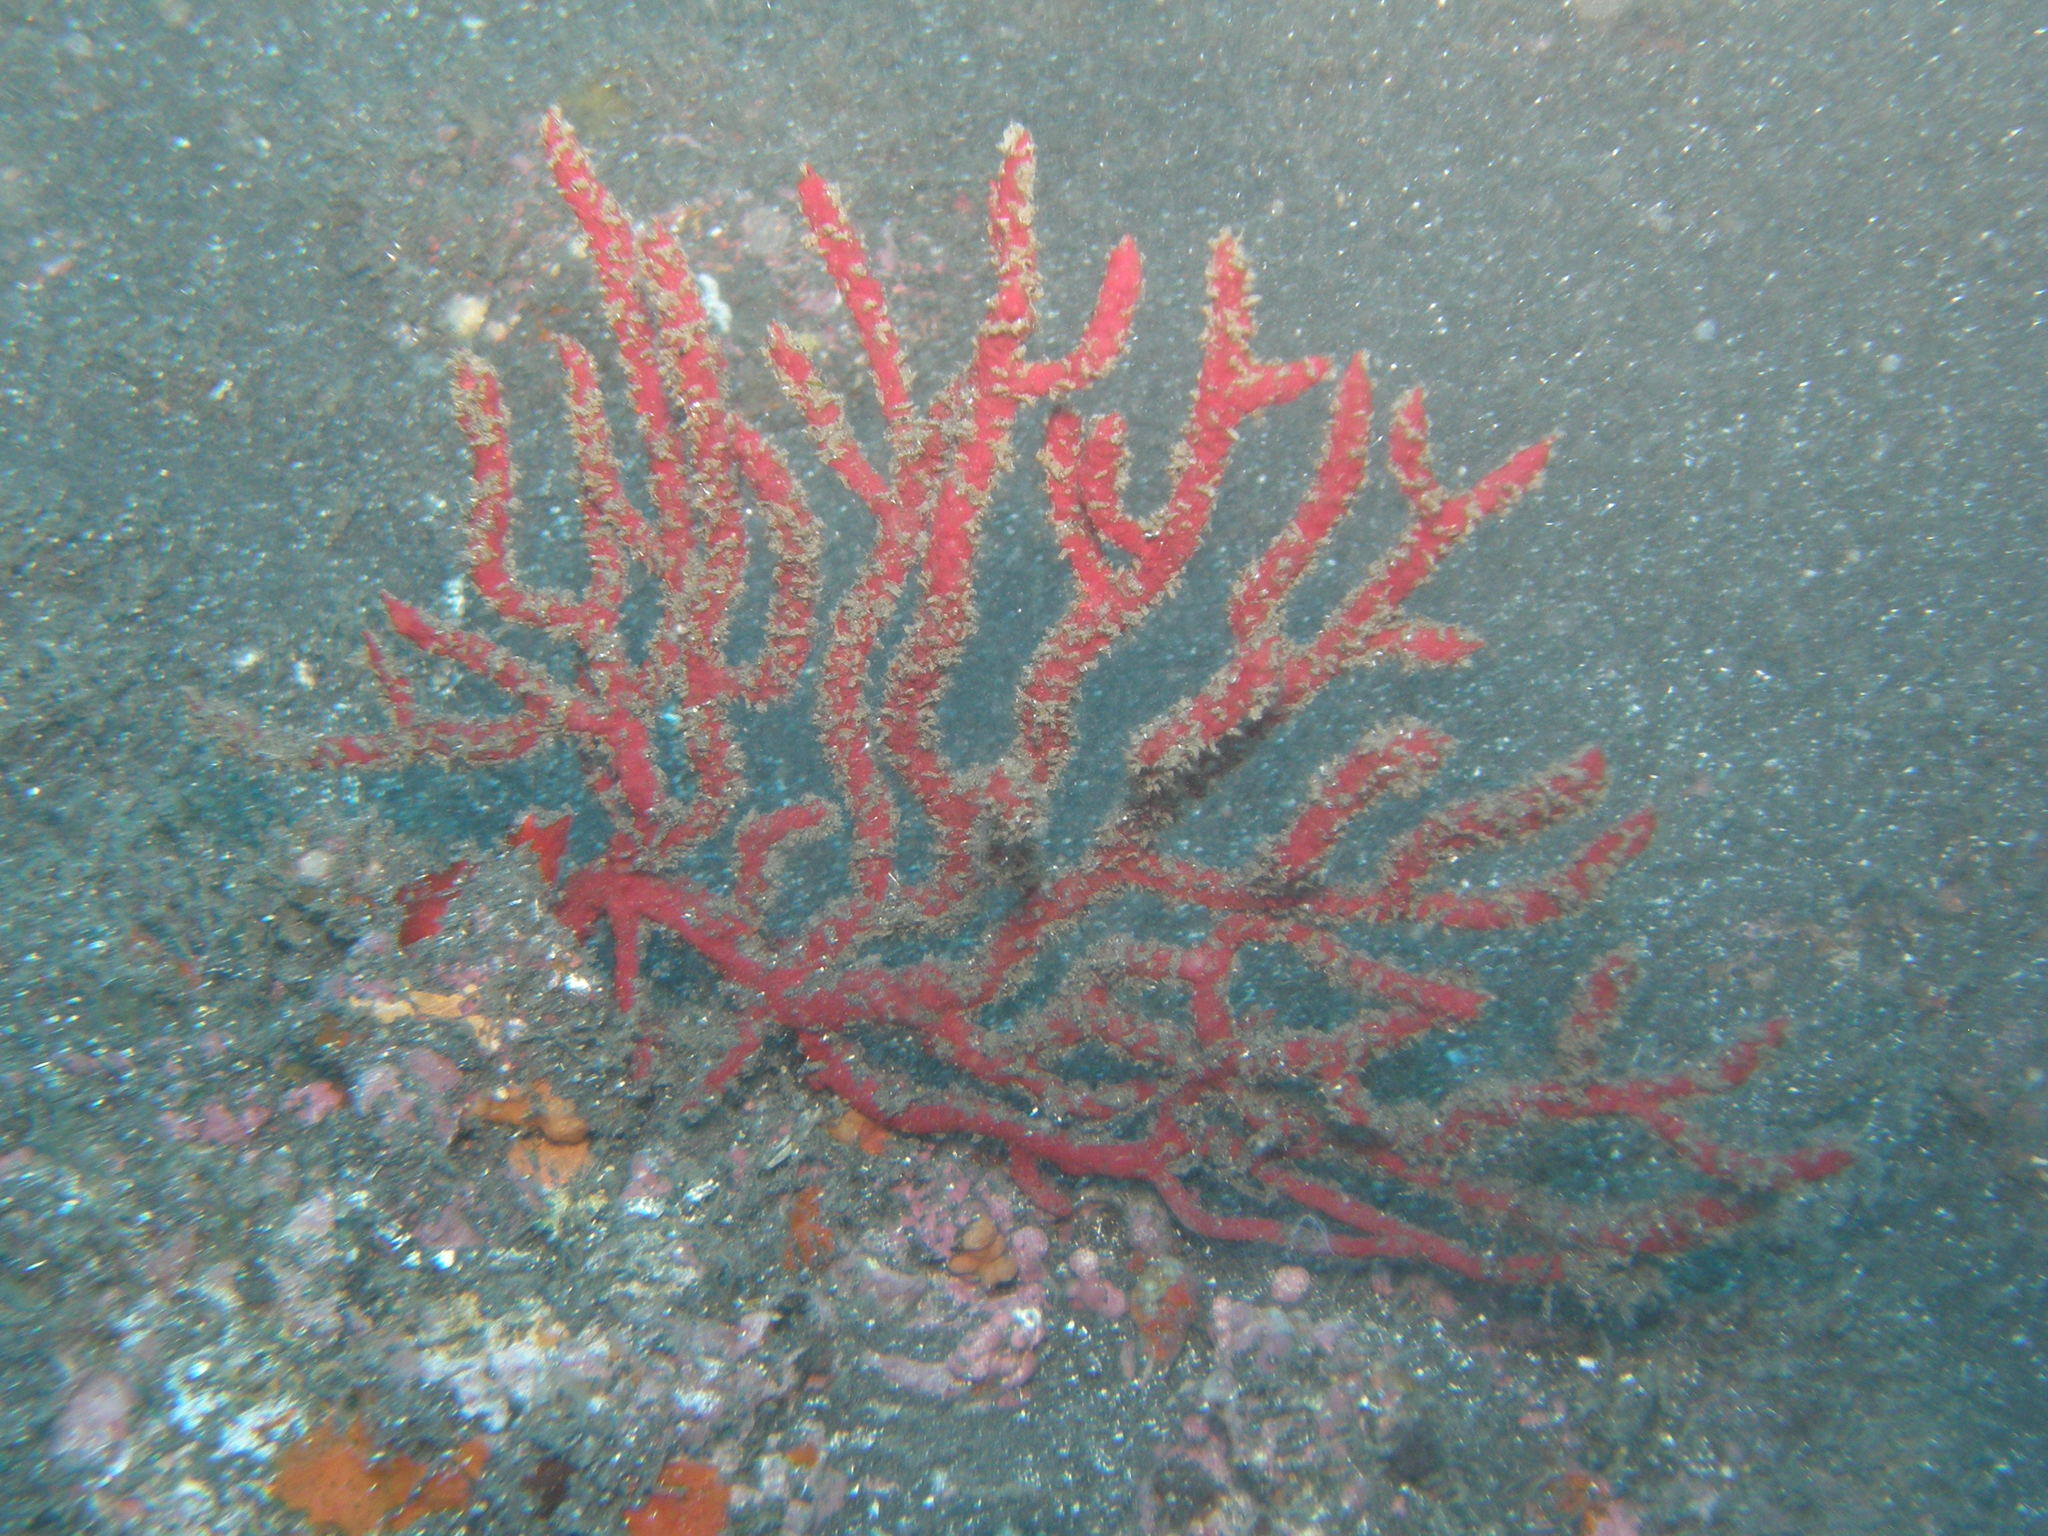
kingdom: Animalia
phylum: Cnidaria
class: Anthozoa
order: Malacalcyonacea
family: Gorgoniidae
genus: Leptogorgia
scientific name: Leptogorgia ruberrima
